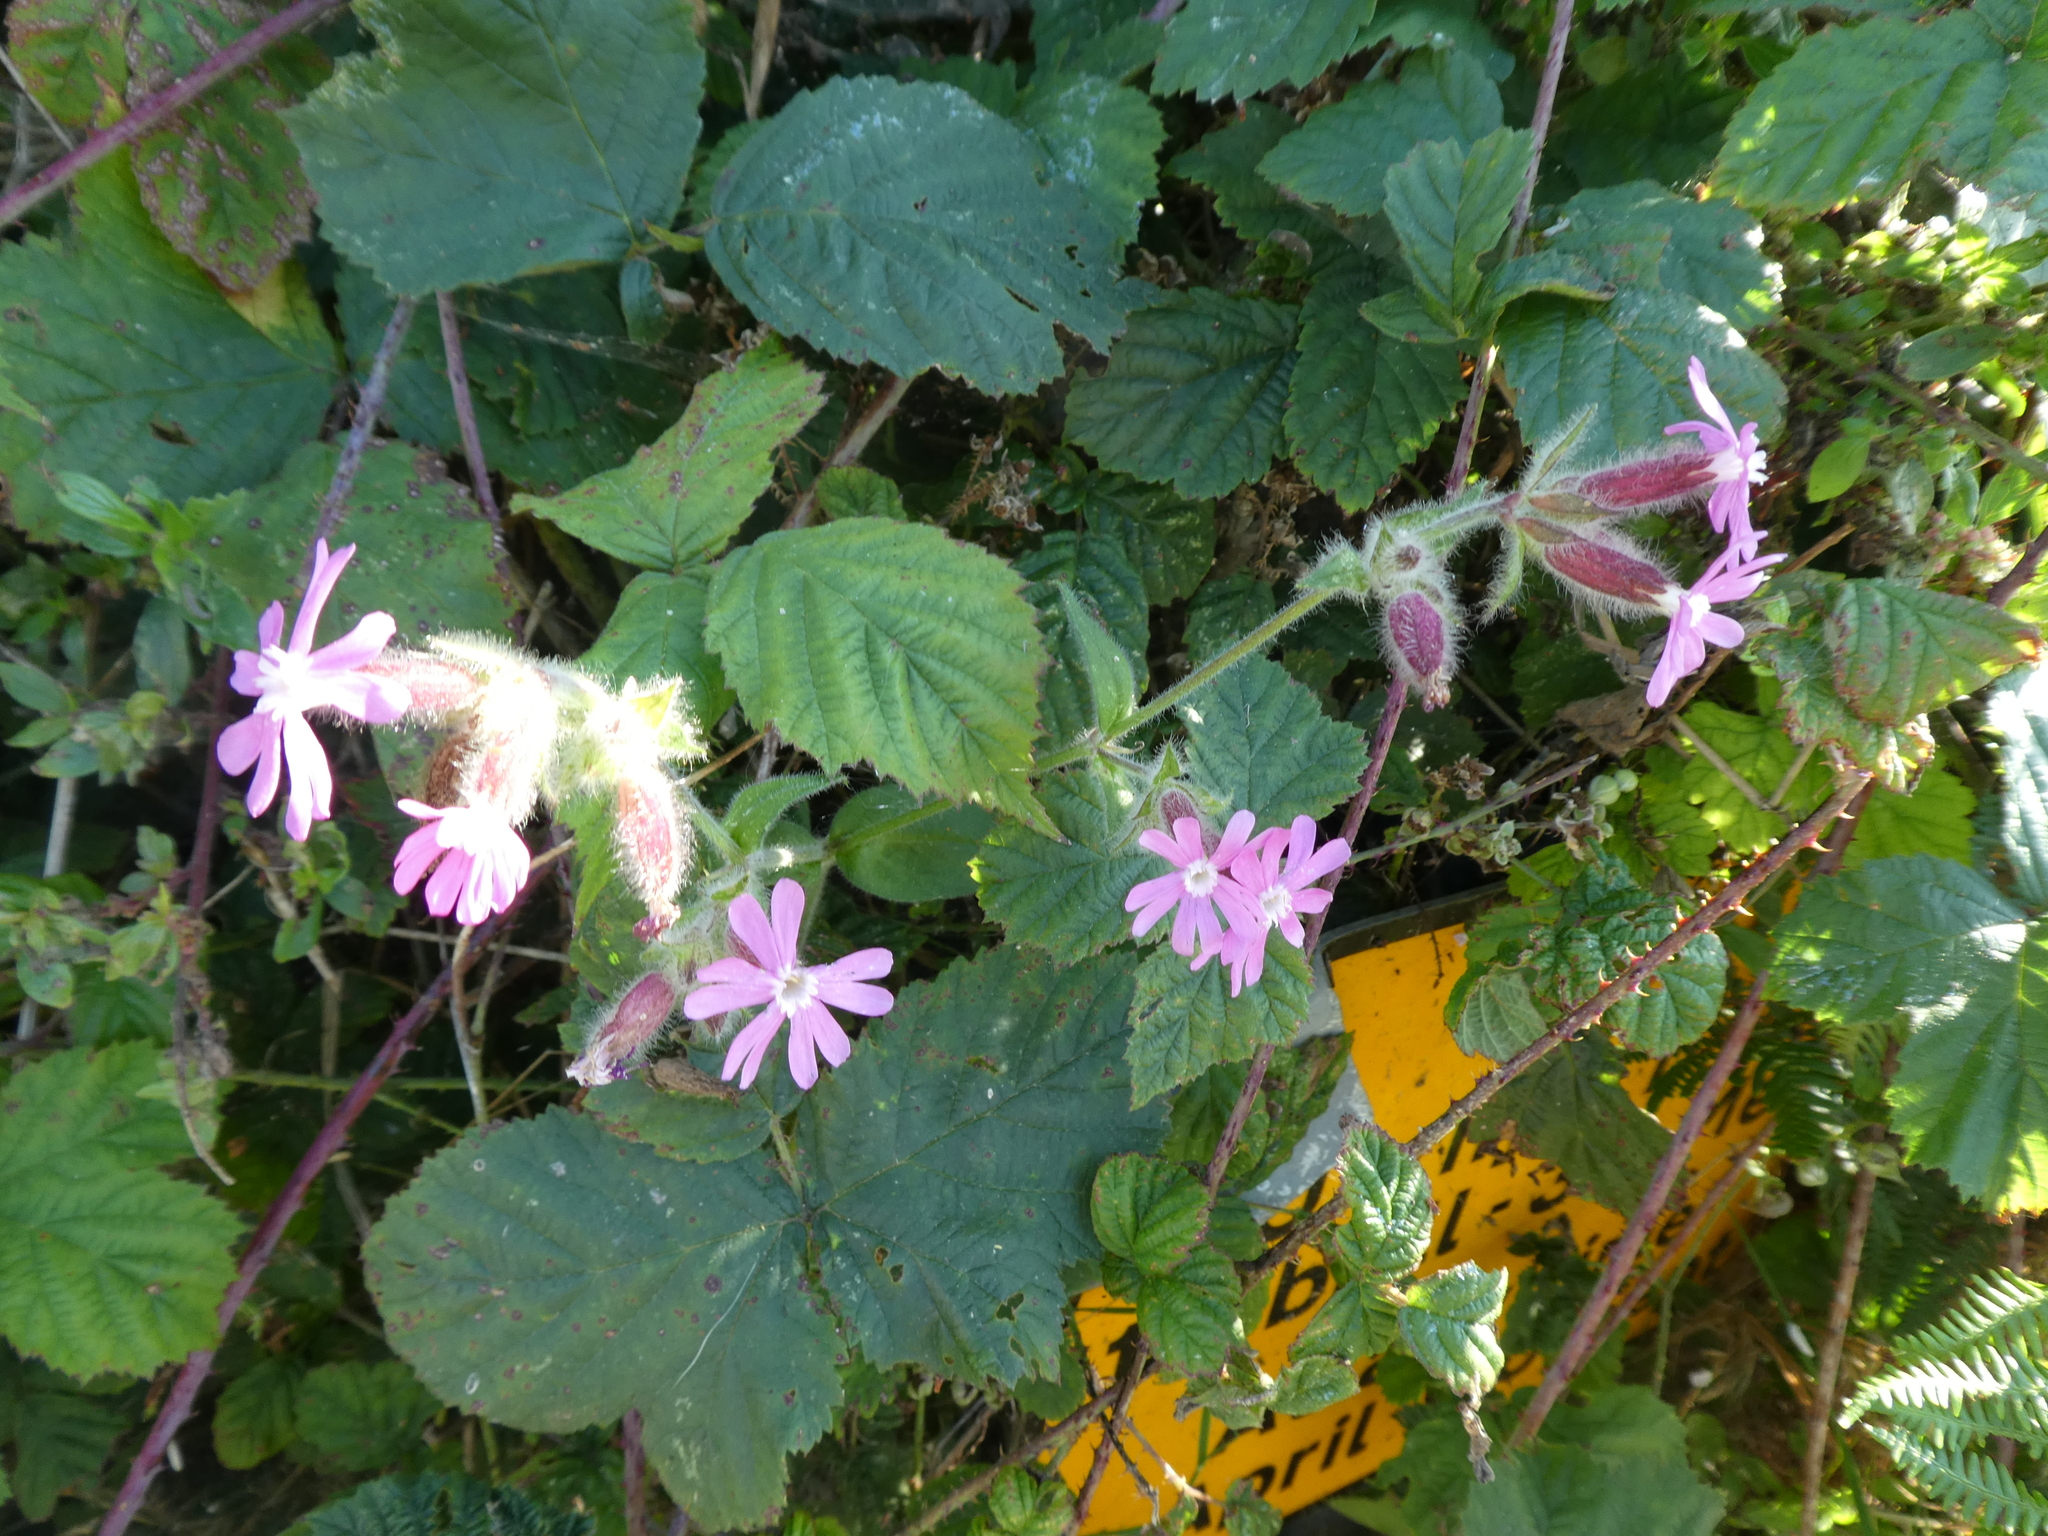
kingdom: Plantae
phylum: Tracheophyta
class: Magnoliopsida
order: Caryophyllales
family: Caryophyllaceae
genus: Silene
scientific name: Silene dioica
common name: Red campion
